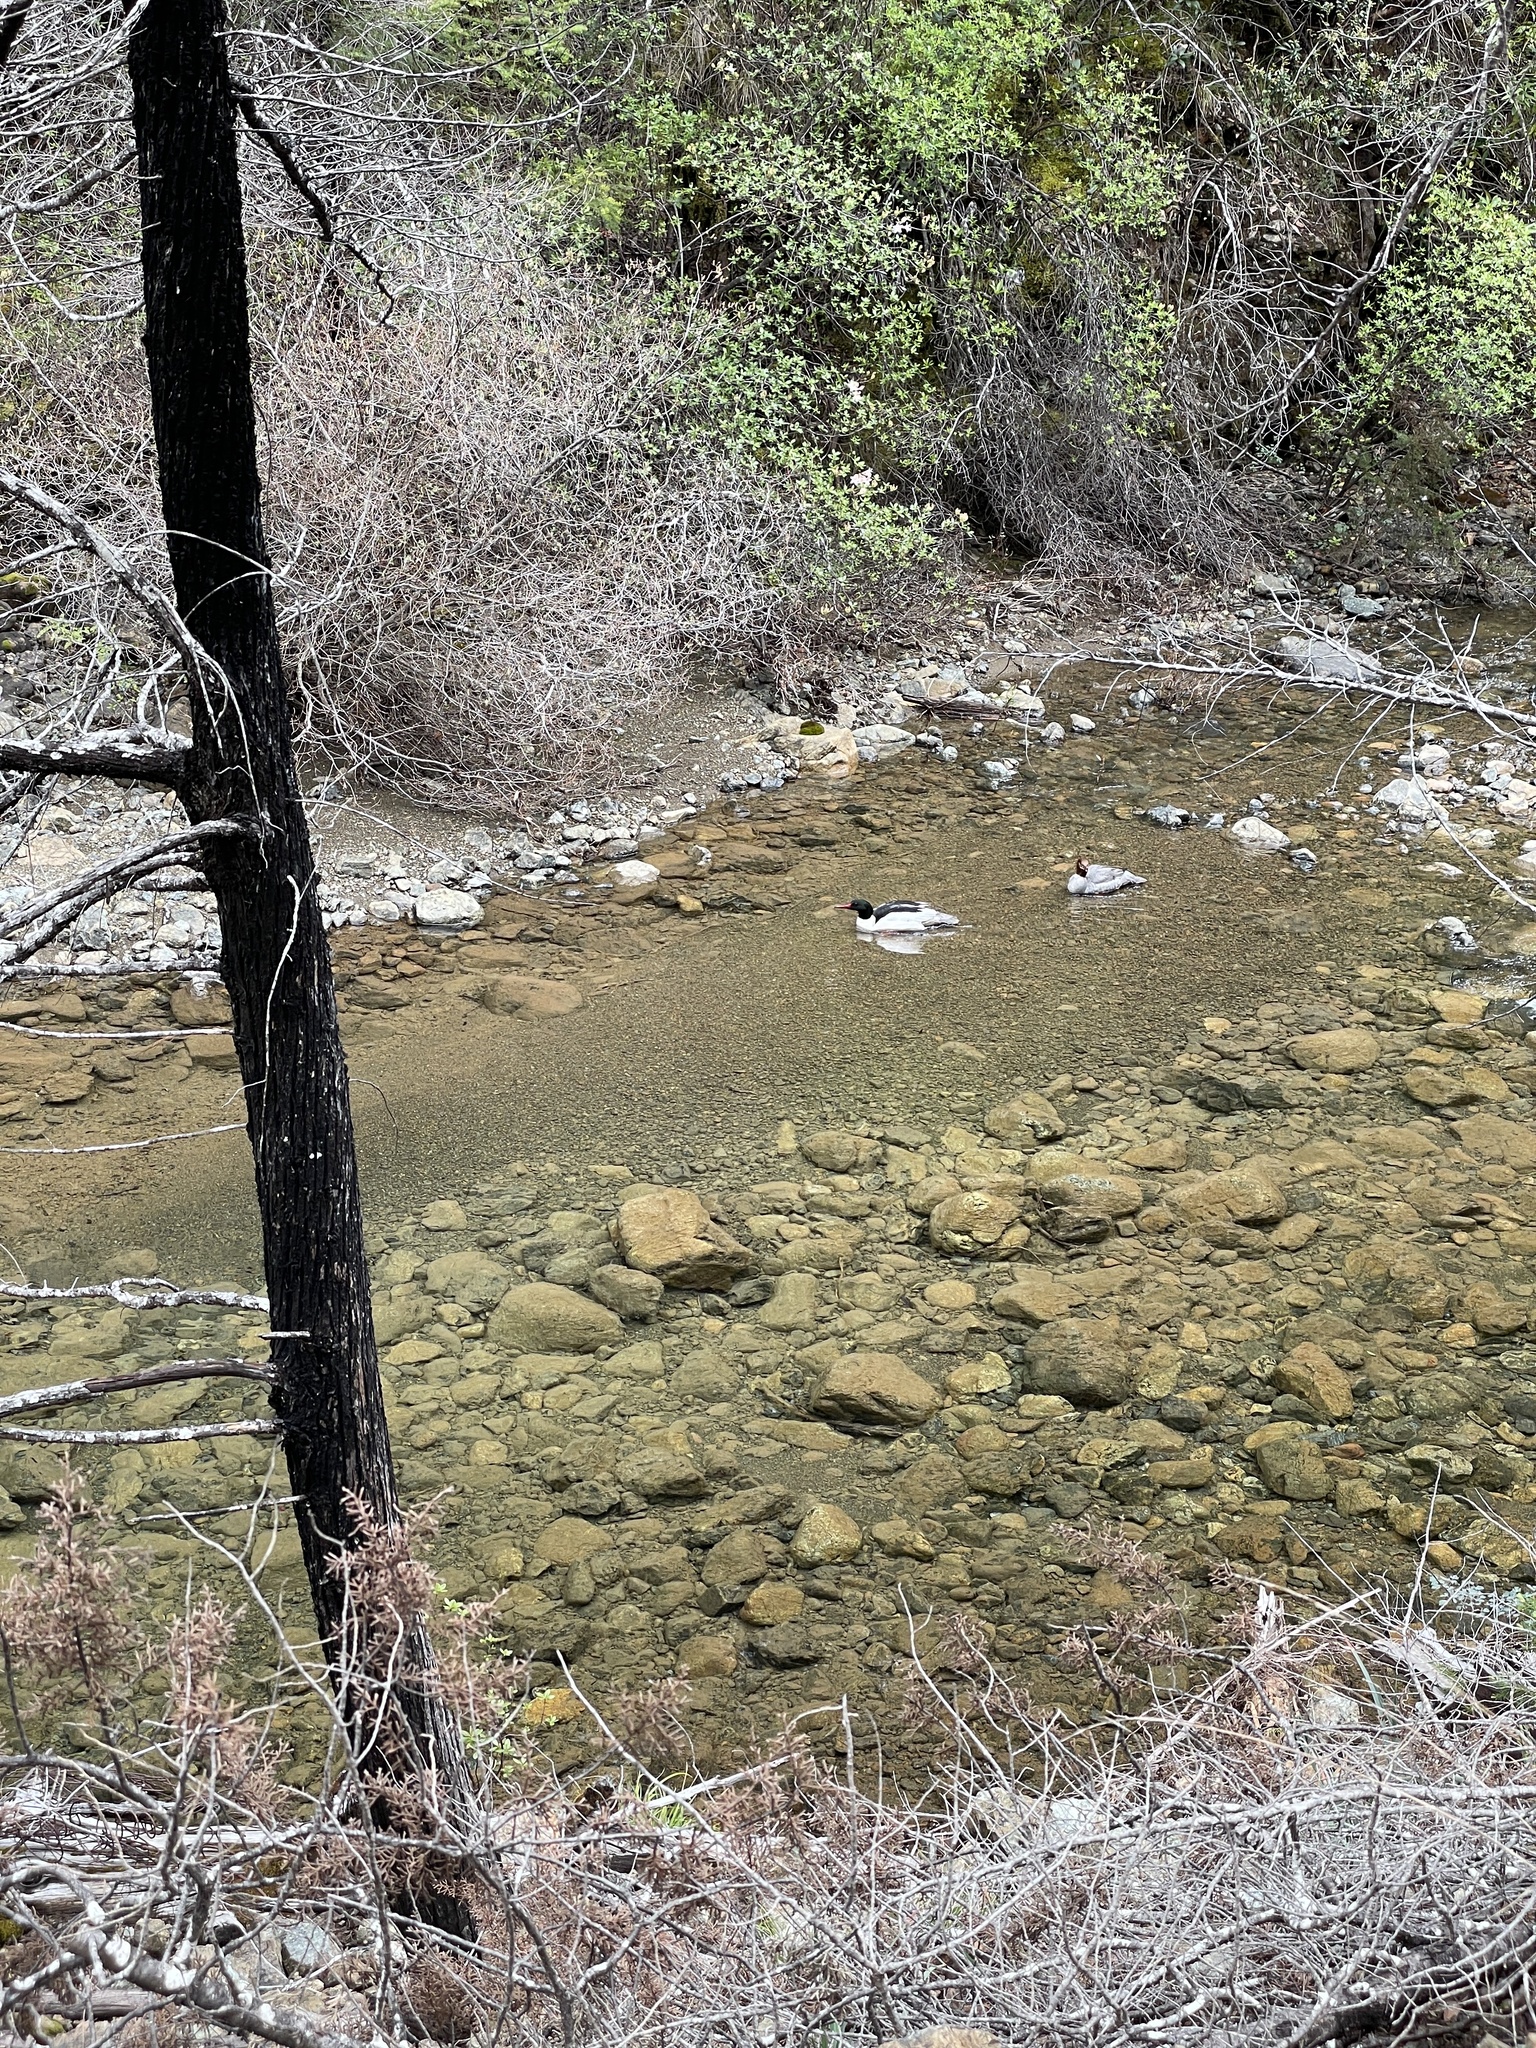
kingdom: Animalia
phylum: Chordata
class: Aves
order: Anseriformes
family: Anatidae
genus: Mergus
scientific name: Mergus merganser
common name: Common merganser
